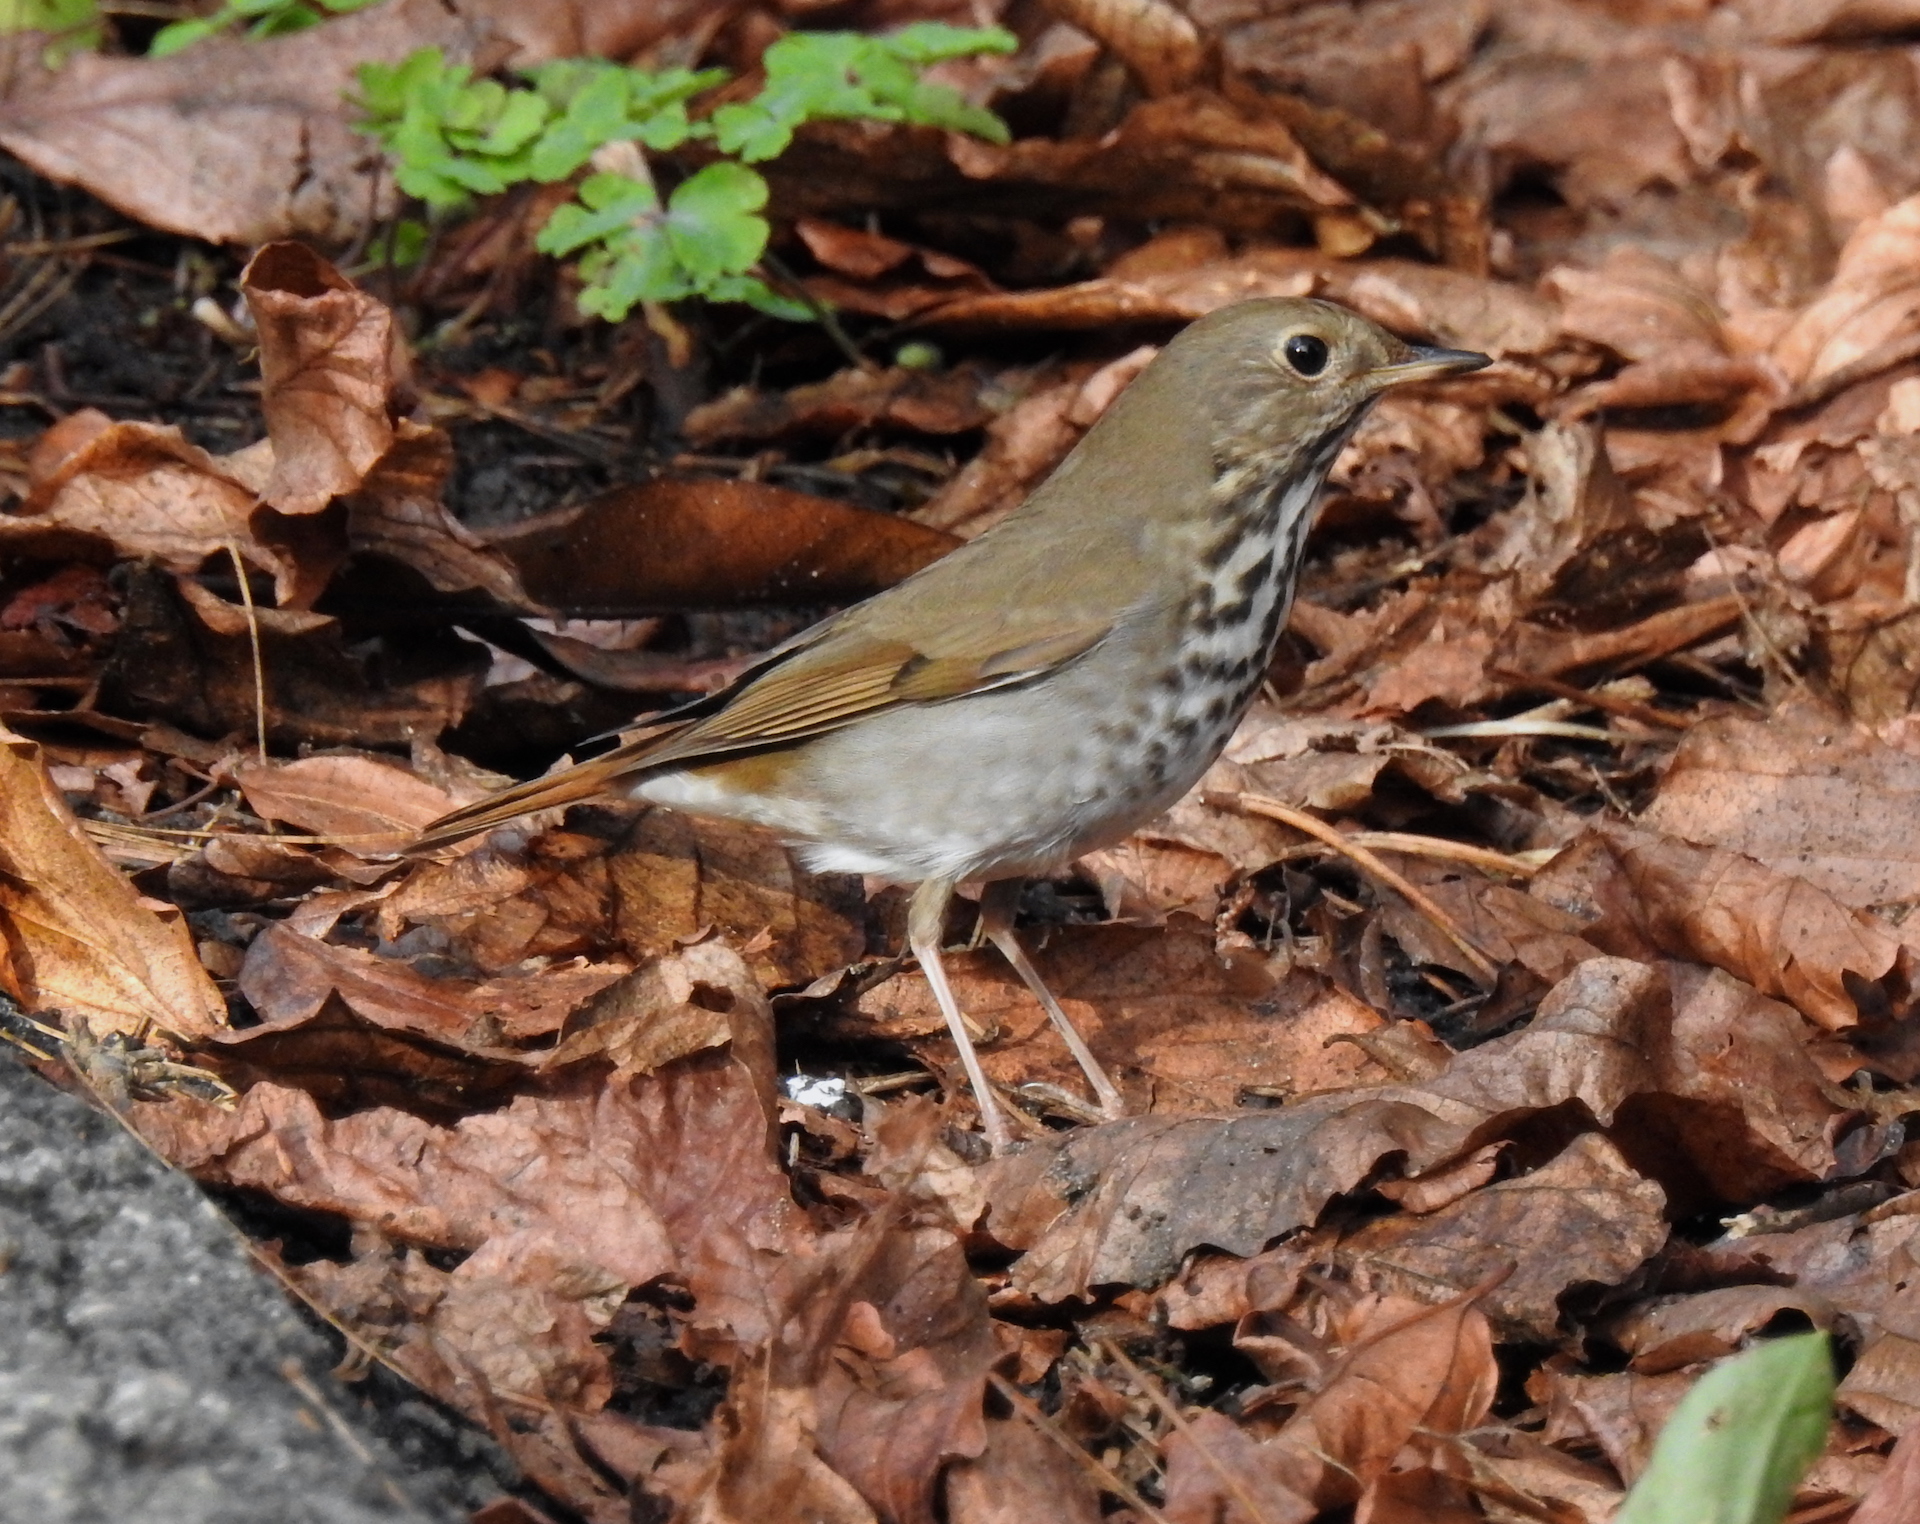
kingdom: Animalia
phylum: Chordata
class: Aves
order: Passeriformes
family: Turdidae
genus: Catharus
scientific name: Catharus guttatus
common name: Hermit thrush
